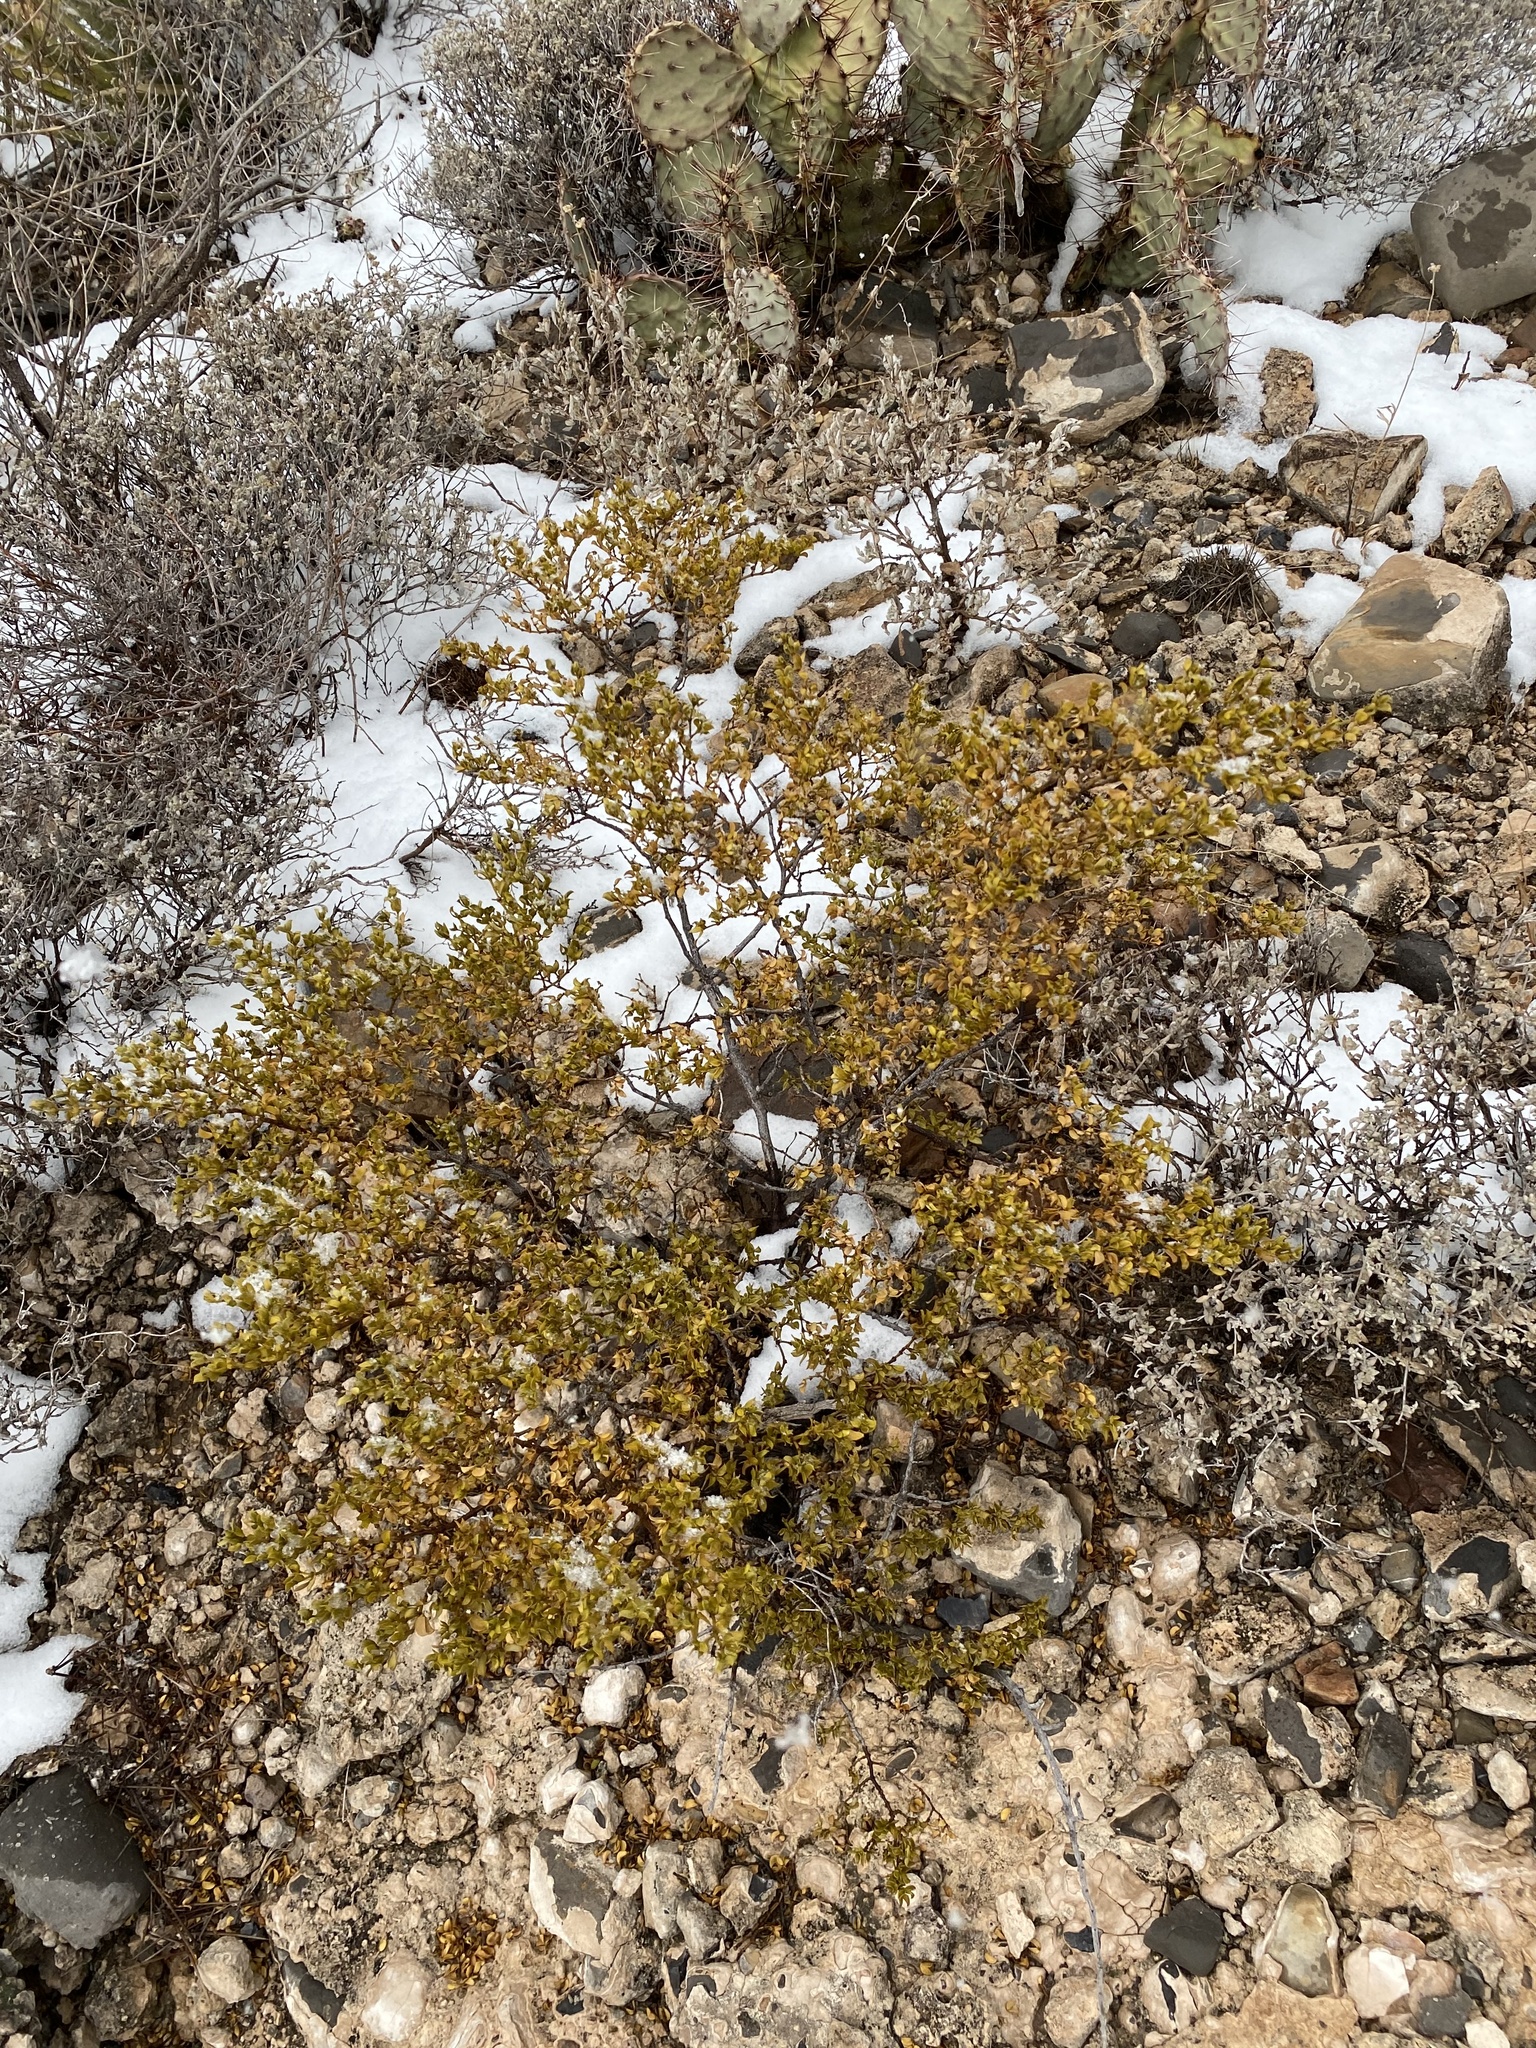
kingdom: Plantae
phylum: Tracheophyta
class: Magnoliopsida
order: Zygophyllales
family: Zygophyllaceae
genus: Larrea
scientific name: Larrea tridentata
